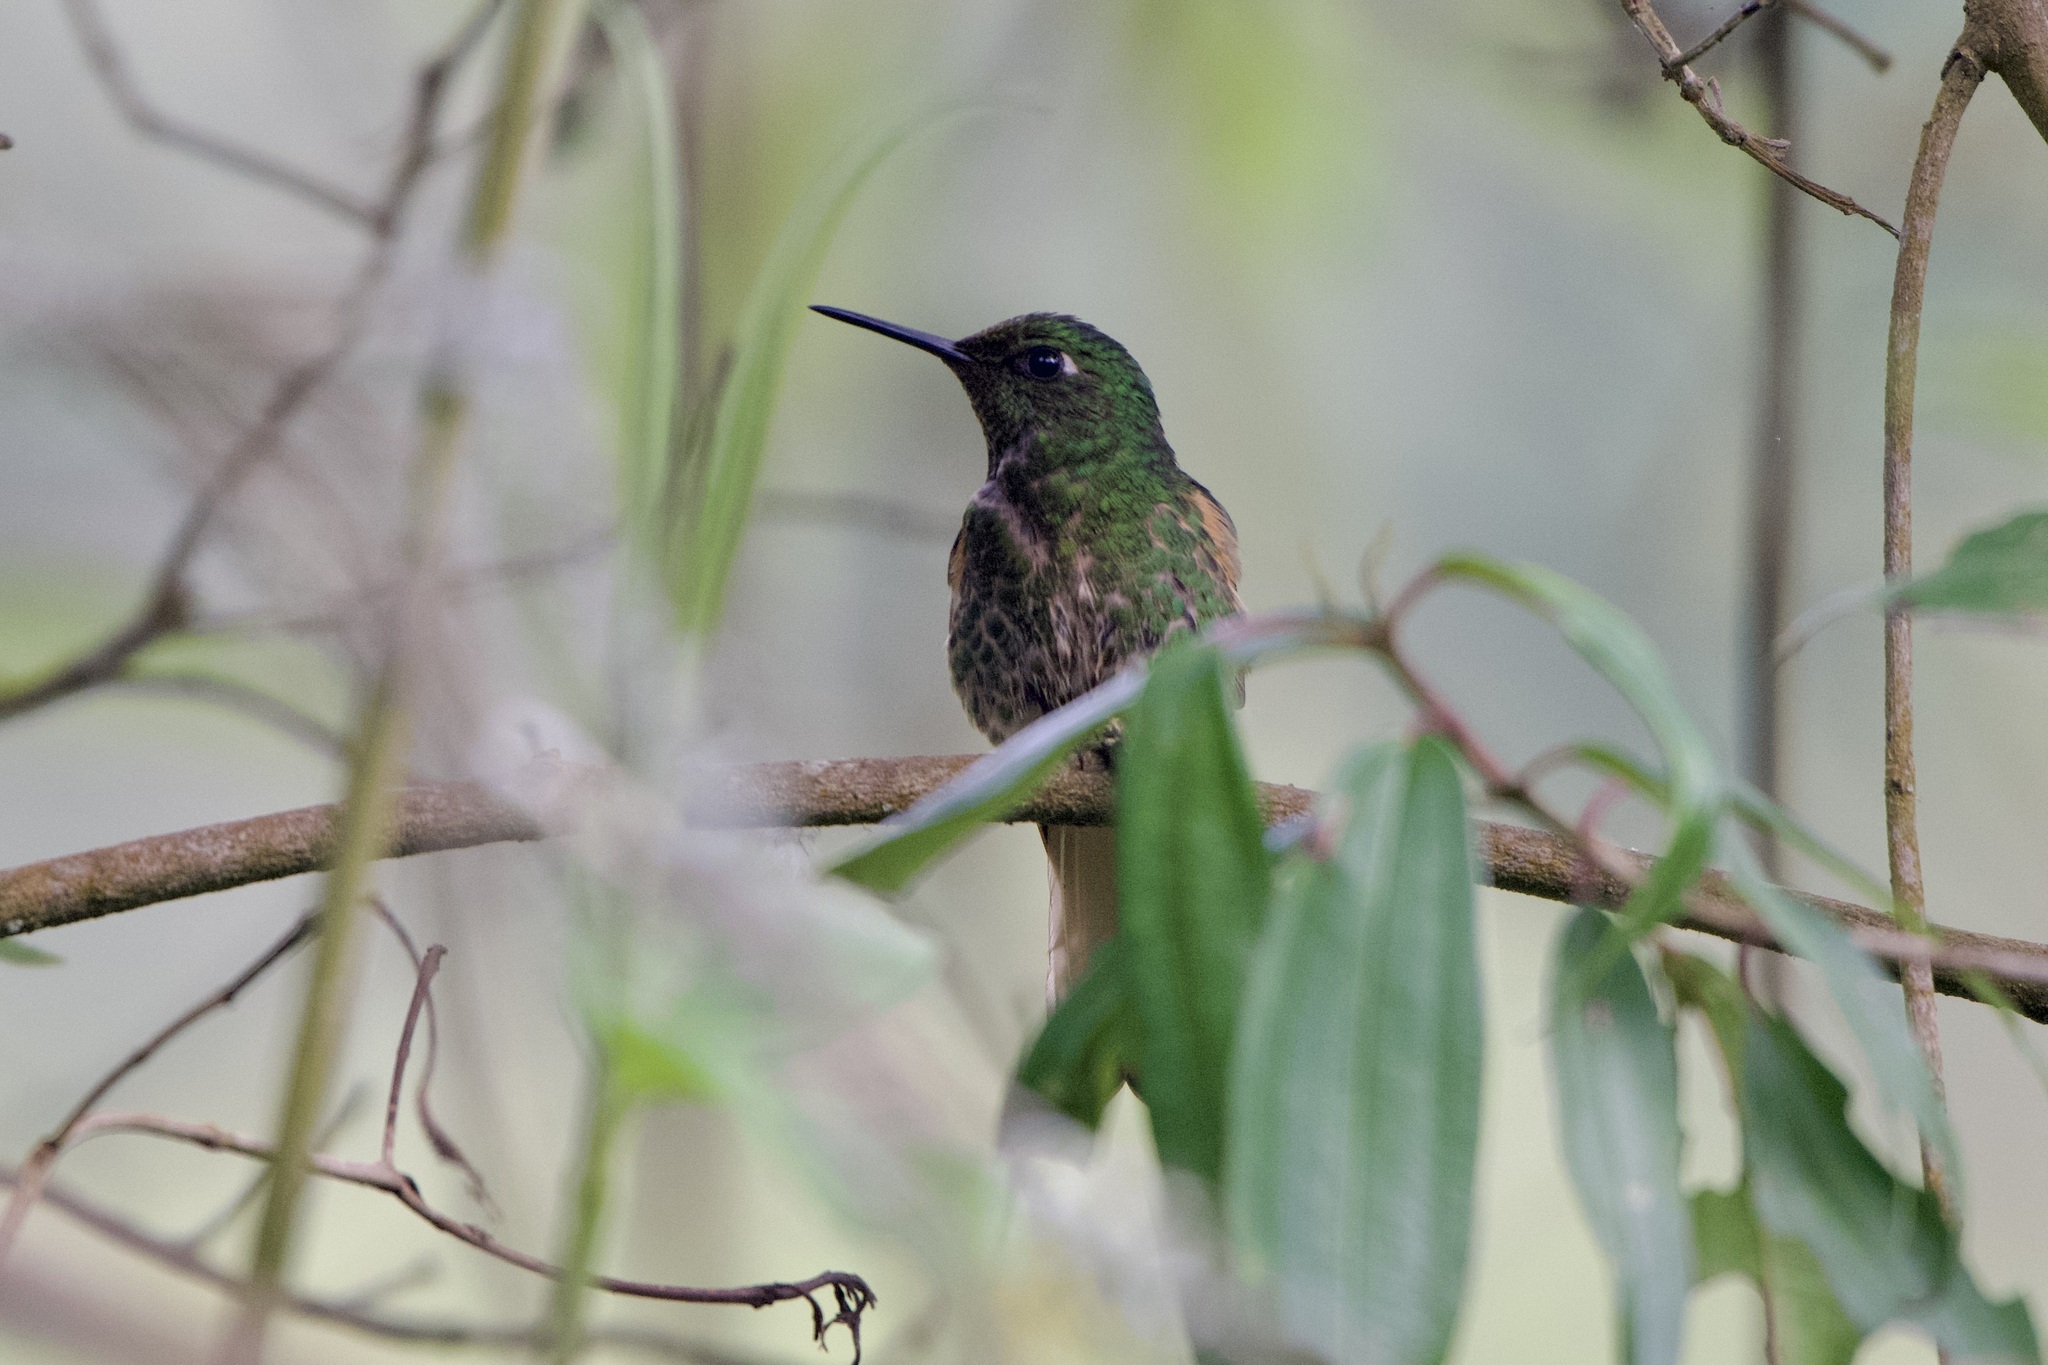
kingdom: Animalia
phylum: Chordata
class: Aves
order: Apodiformes
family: Trochilidae
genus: Boissonneaua
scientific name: Boissonneaua flavescens
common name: Buff-tailed coronet
